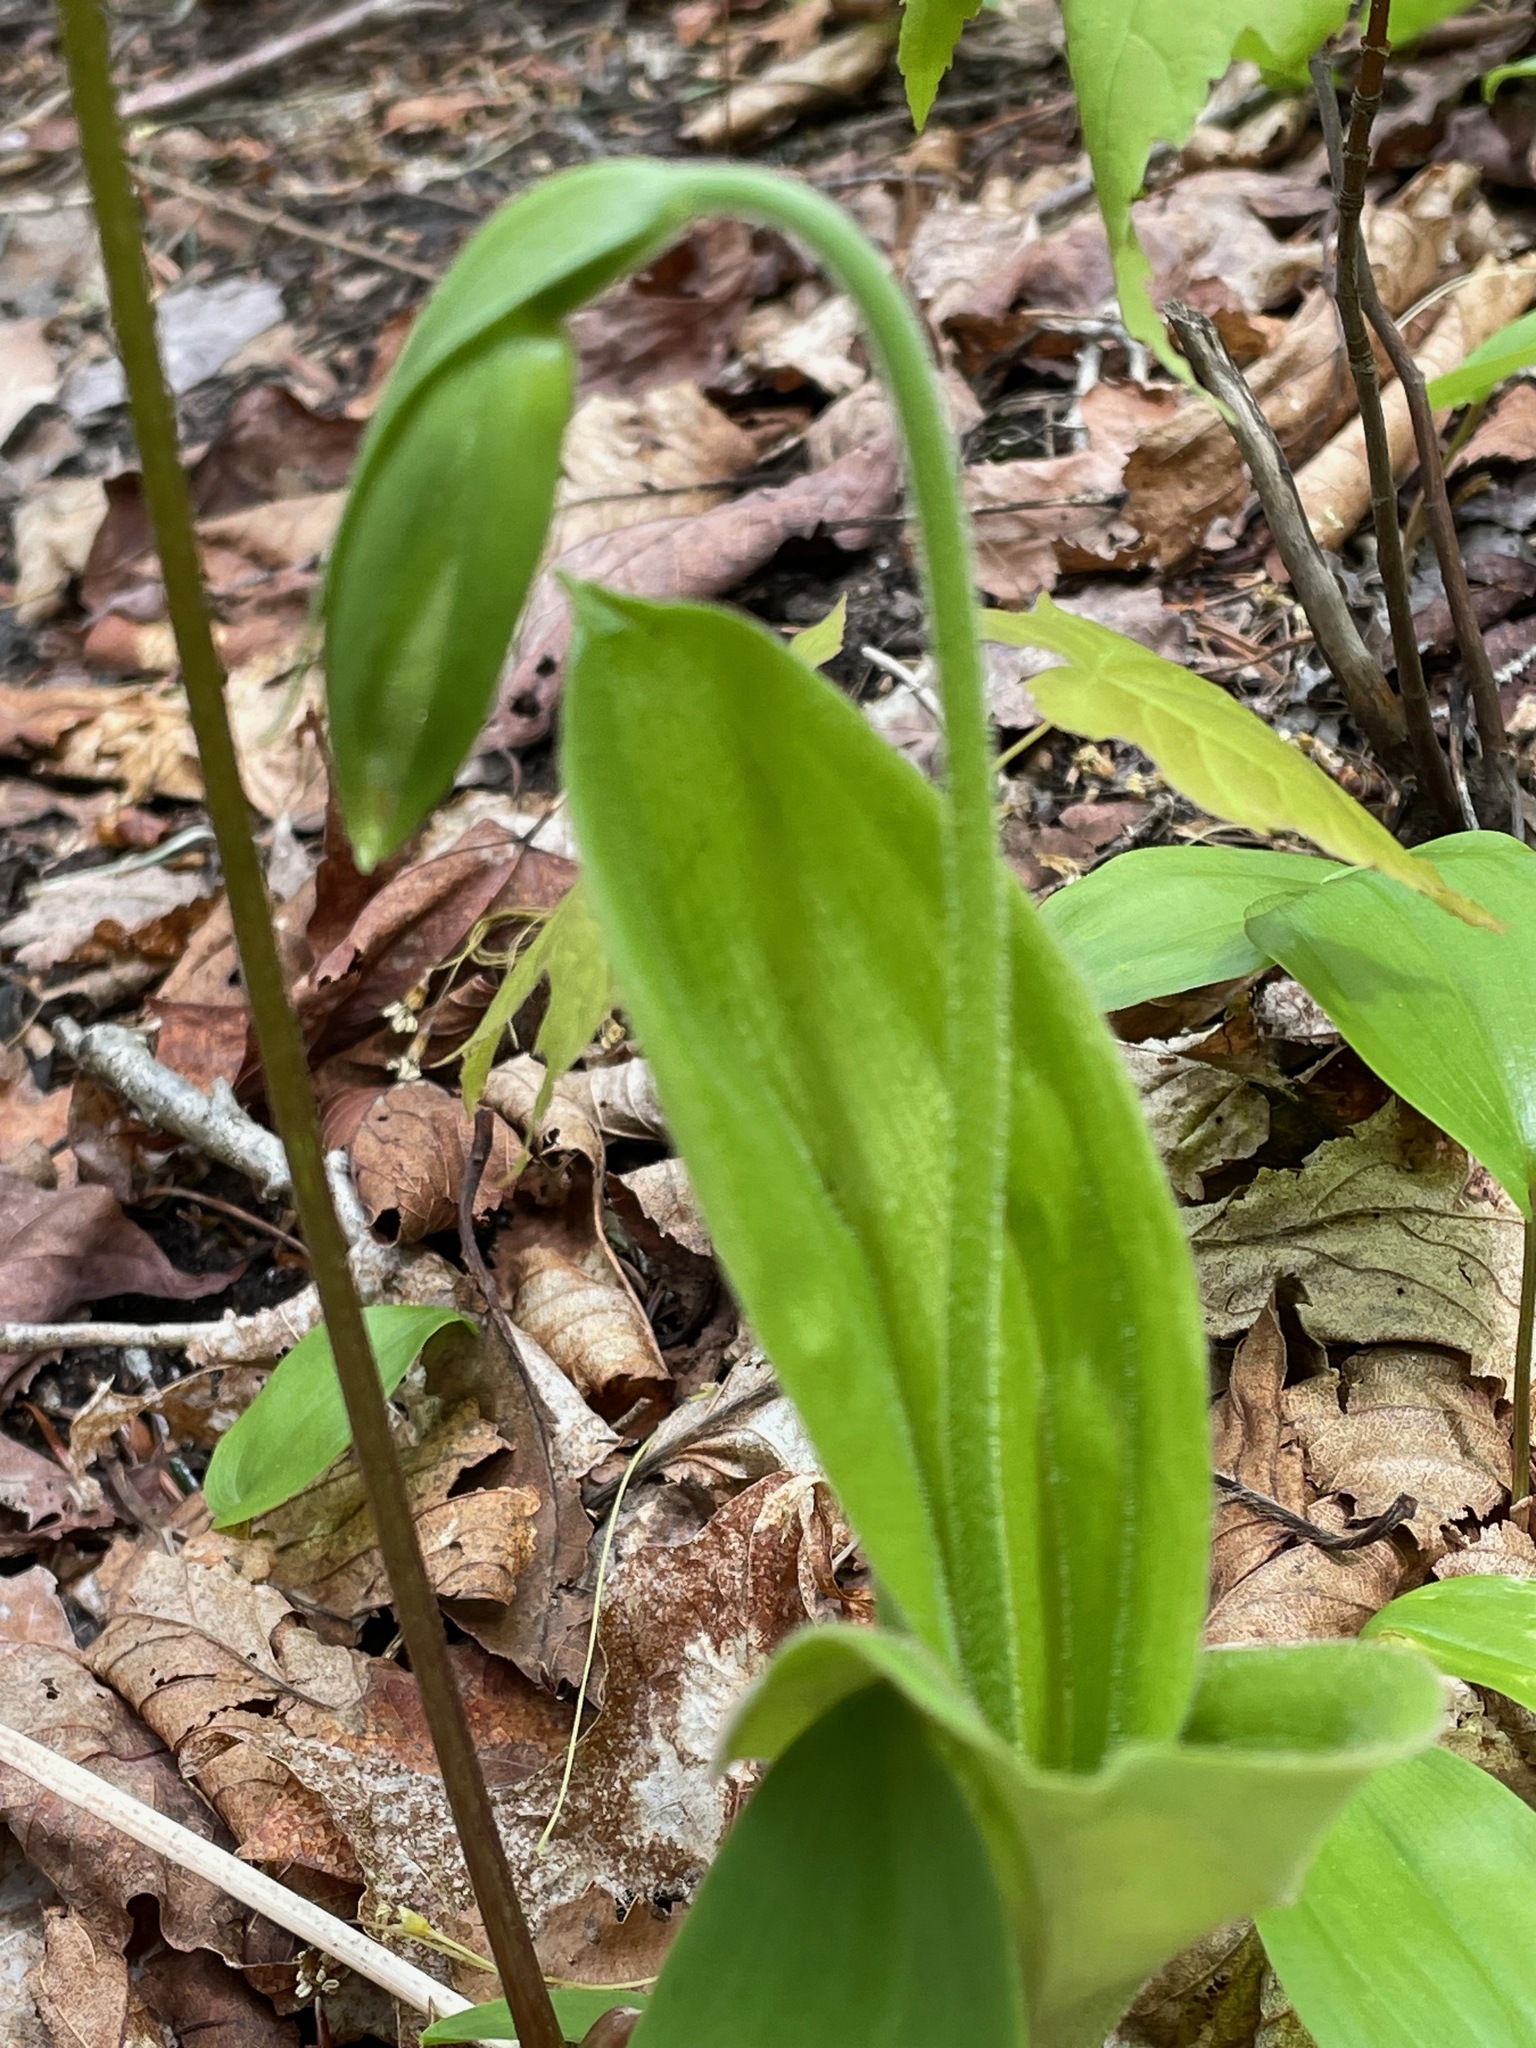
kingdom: Plantae
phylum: Tracheophyta
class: Liliopsida
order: Asparagales
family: Orchidaceae
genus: Cypripedium
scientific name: Cypripedium acaule
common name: Pink lady's-slipper
